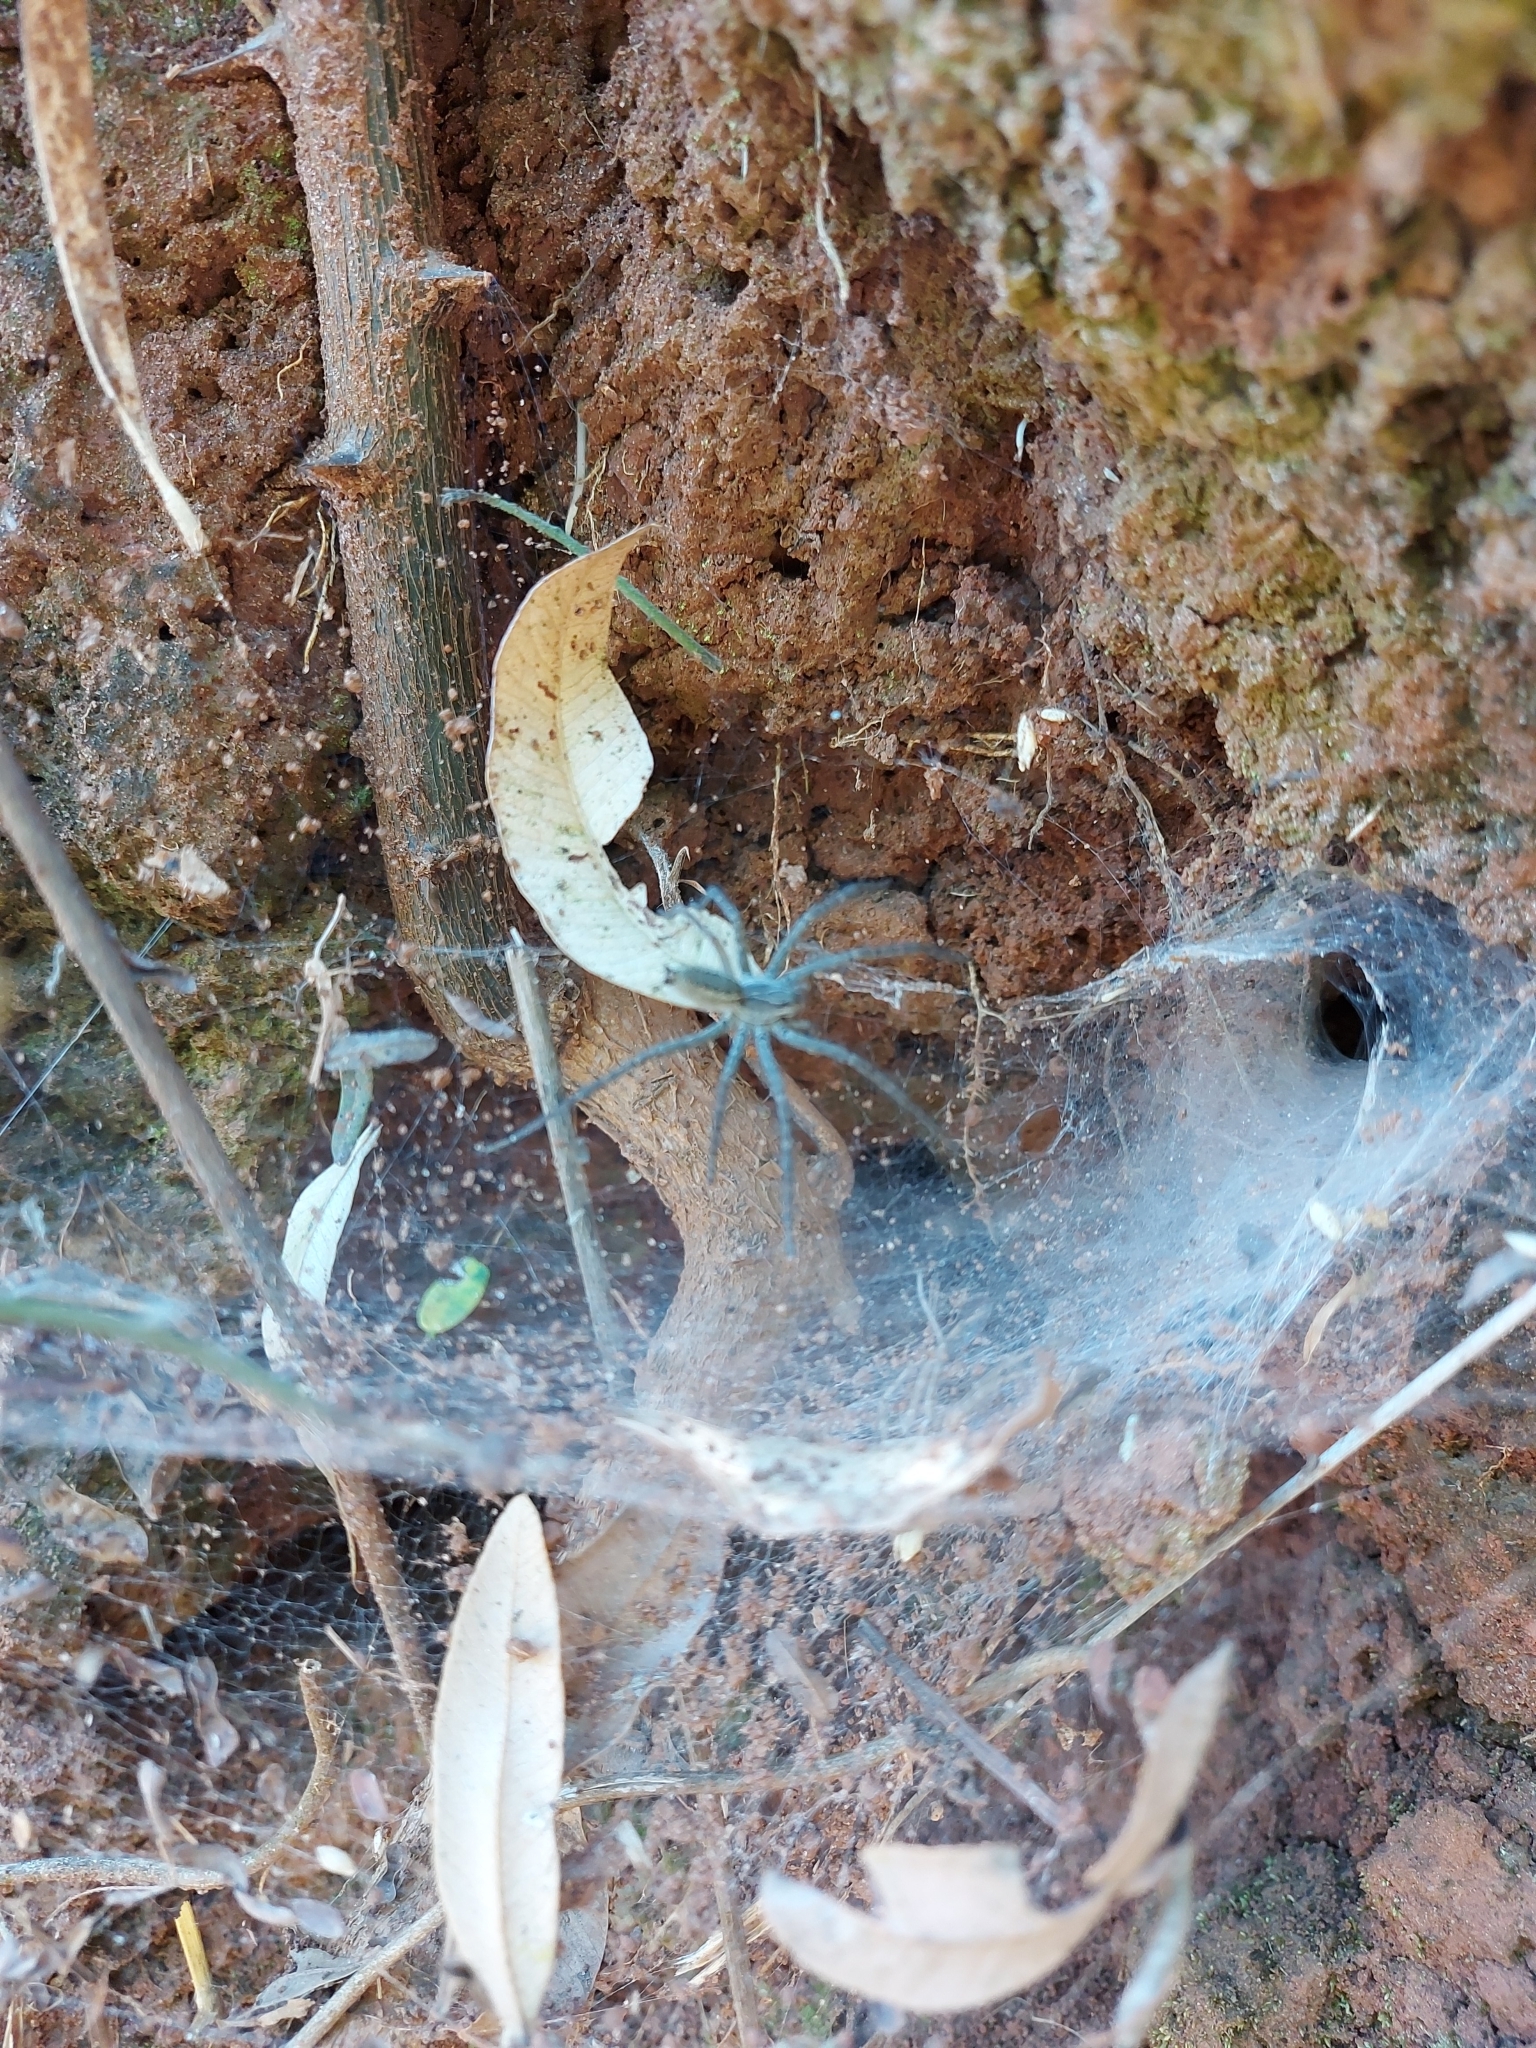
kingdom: Animalia
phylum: Arthropoda
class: Arachnida
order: Araneae
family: Lycosidae
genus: Aglaoctenus
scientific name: Aglaoctenus lagotis
